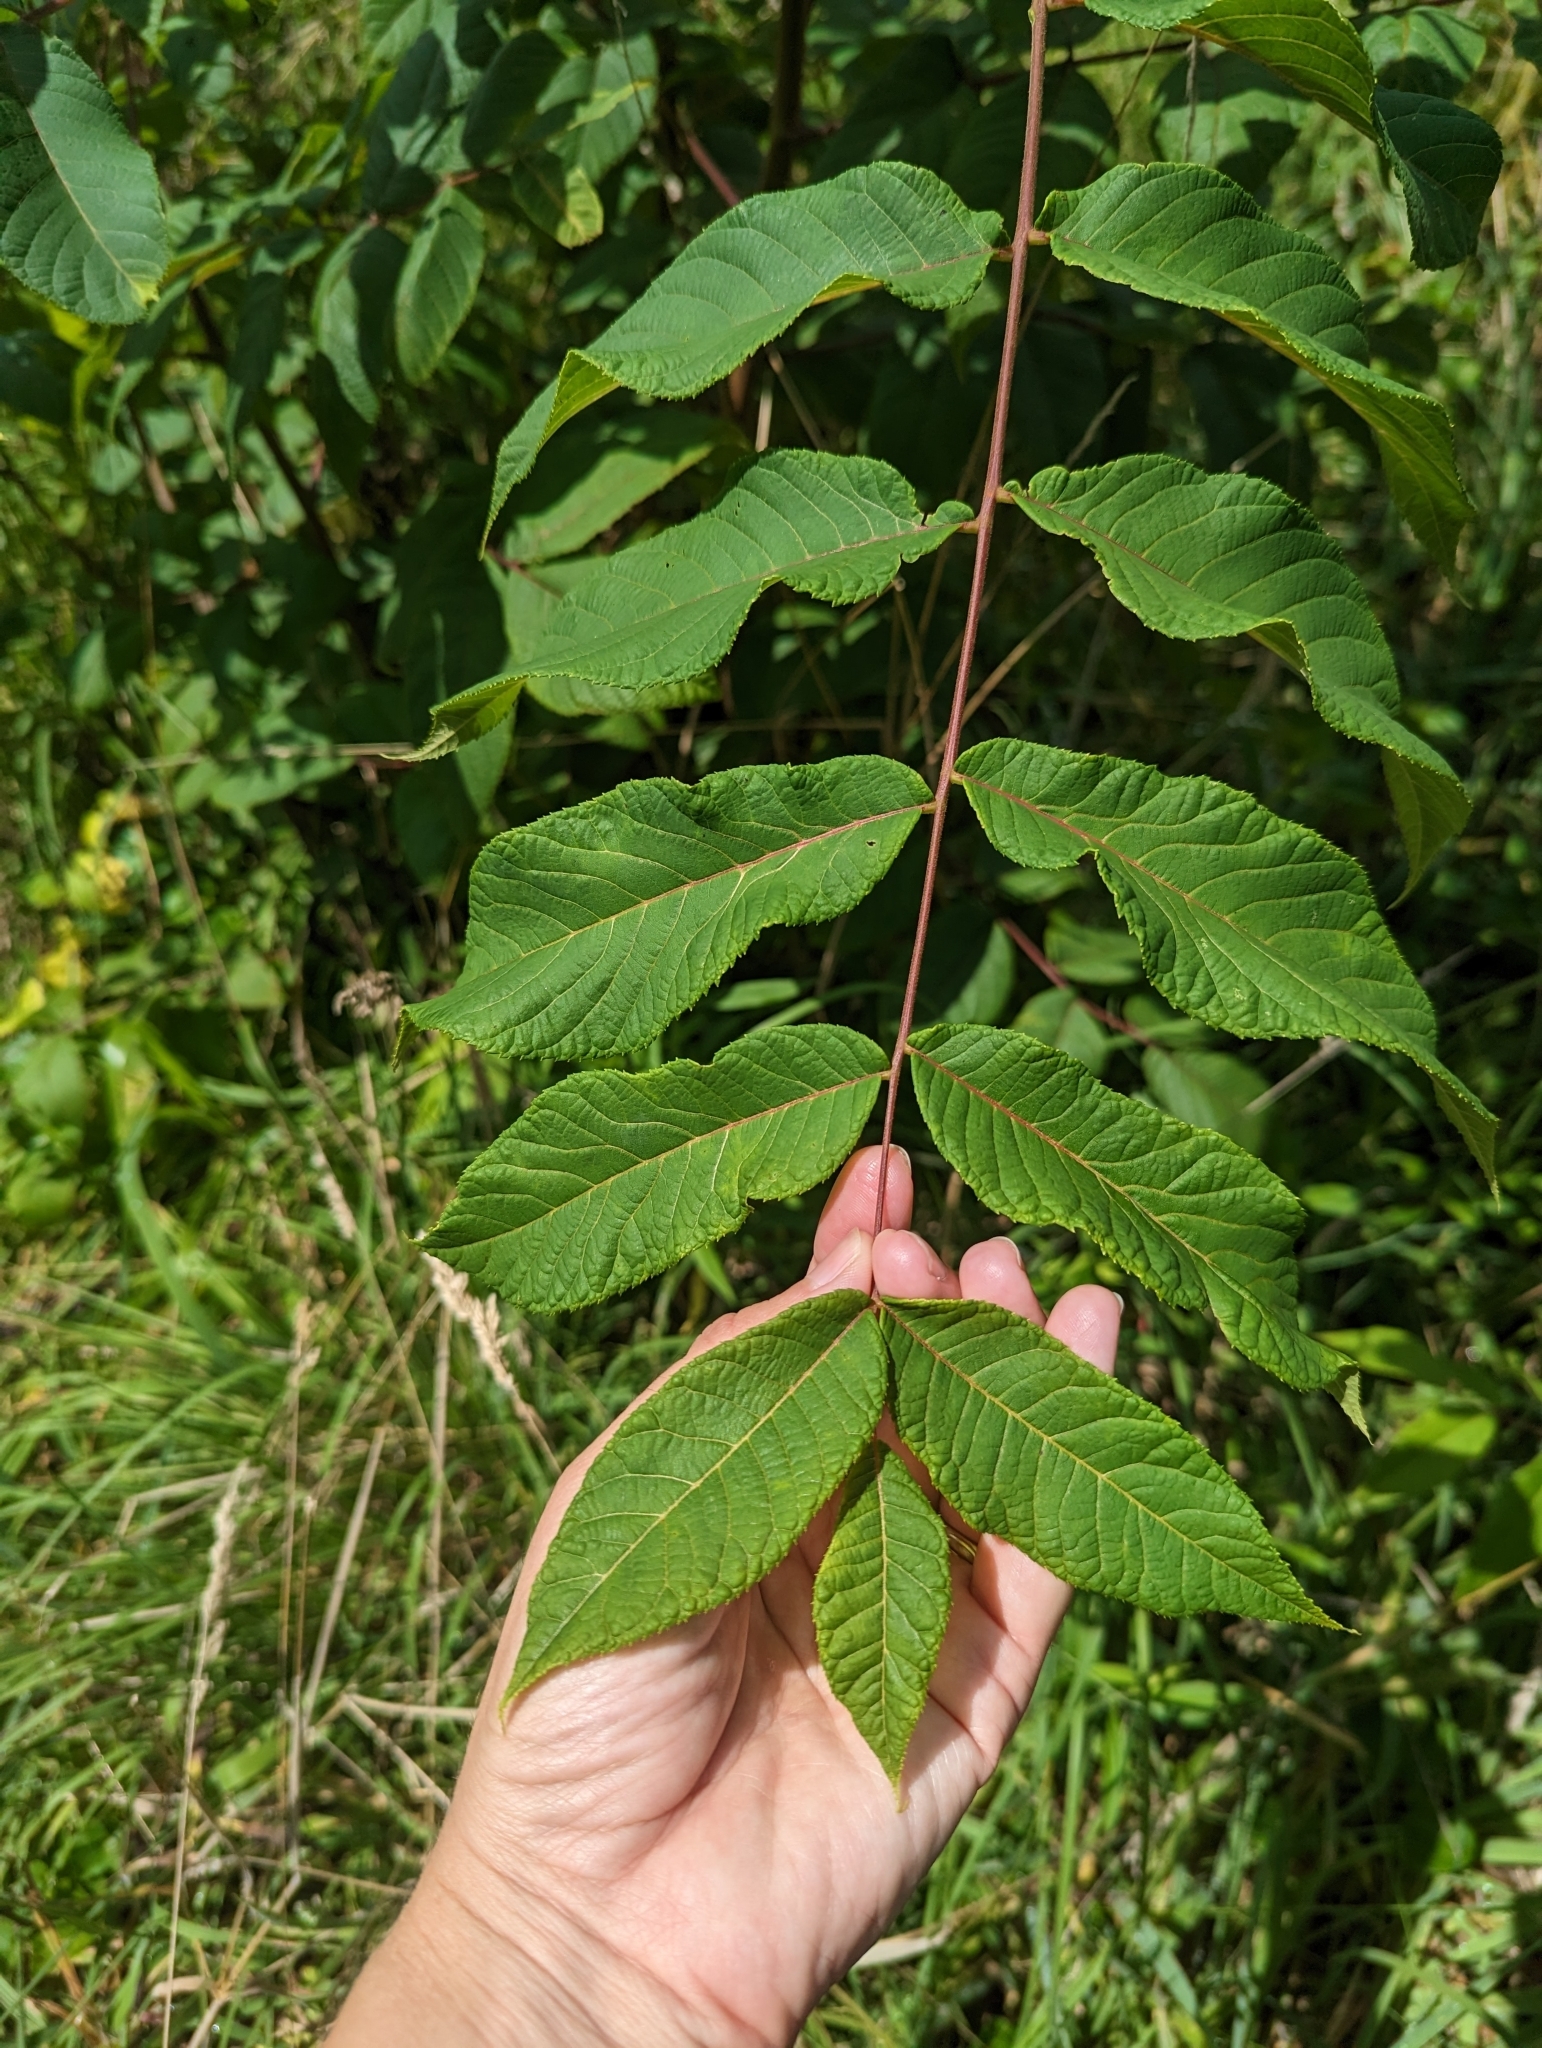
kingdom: Plantae
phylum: Tracheophyta
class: Magnoliopsida
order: Fagales
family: Juglandaceae
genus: Juglans
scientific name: Juglans nigra
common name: Black walnut
